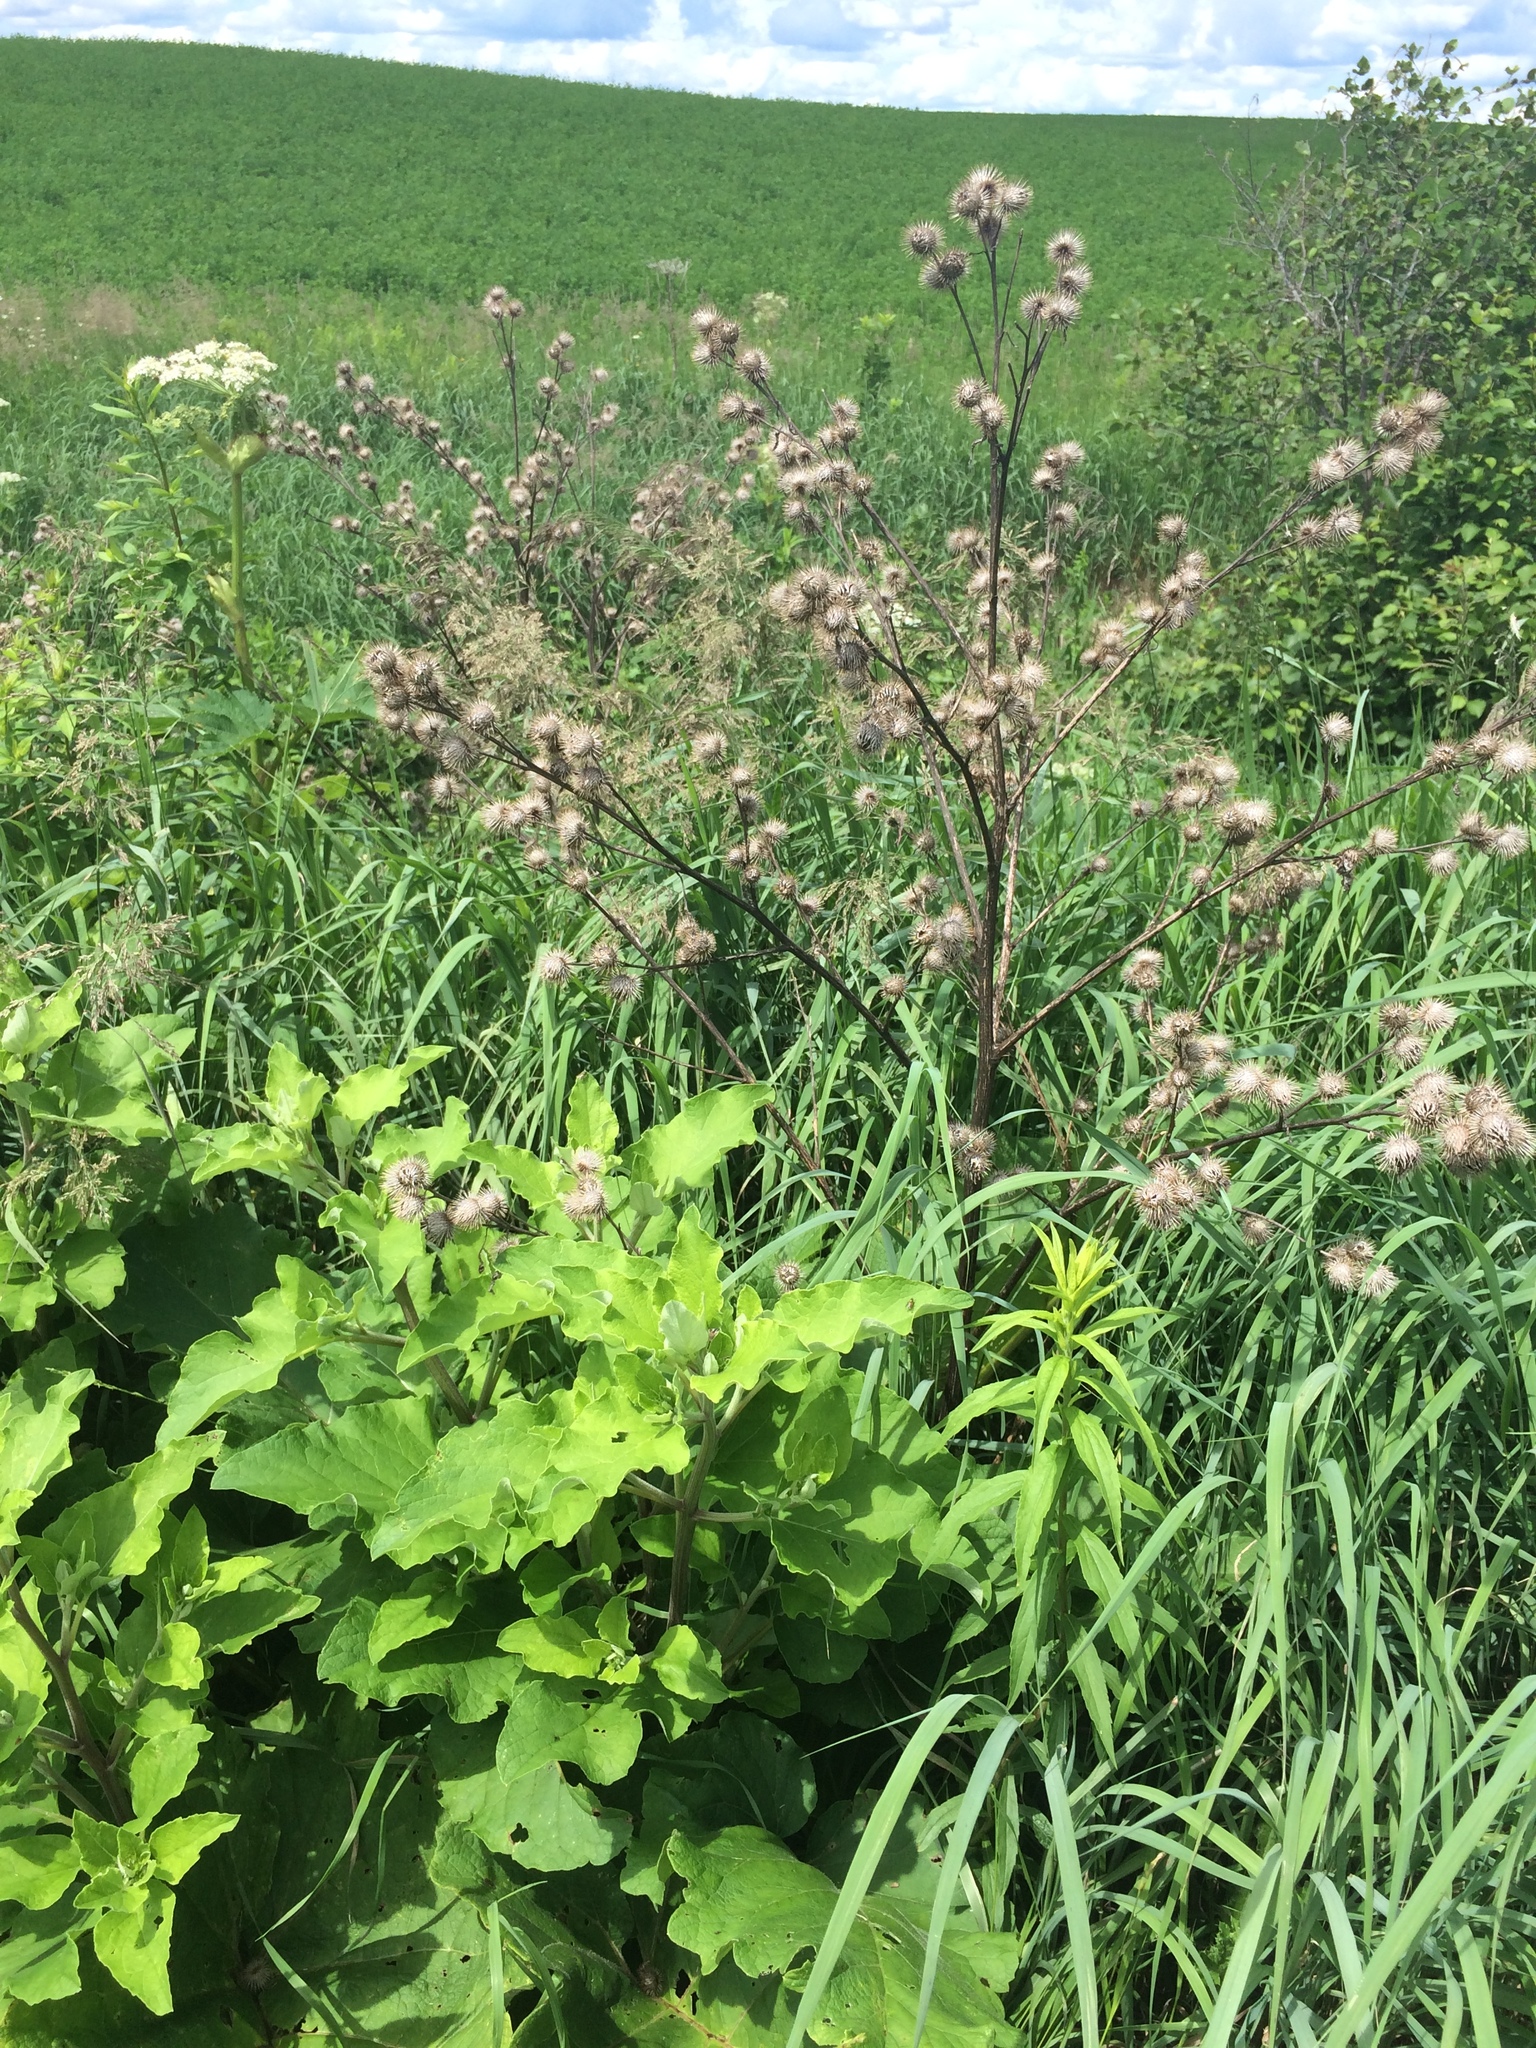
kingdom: Plantae
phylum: Tracheophyta
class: Magnoliopsida
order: Asterales
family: Asteraceae
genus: Arctium
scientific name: Arctium minus
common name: Lesser burdock
